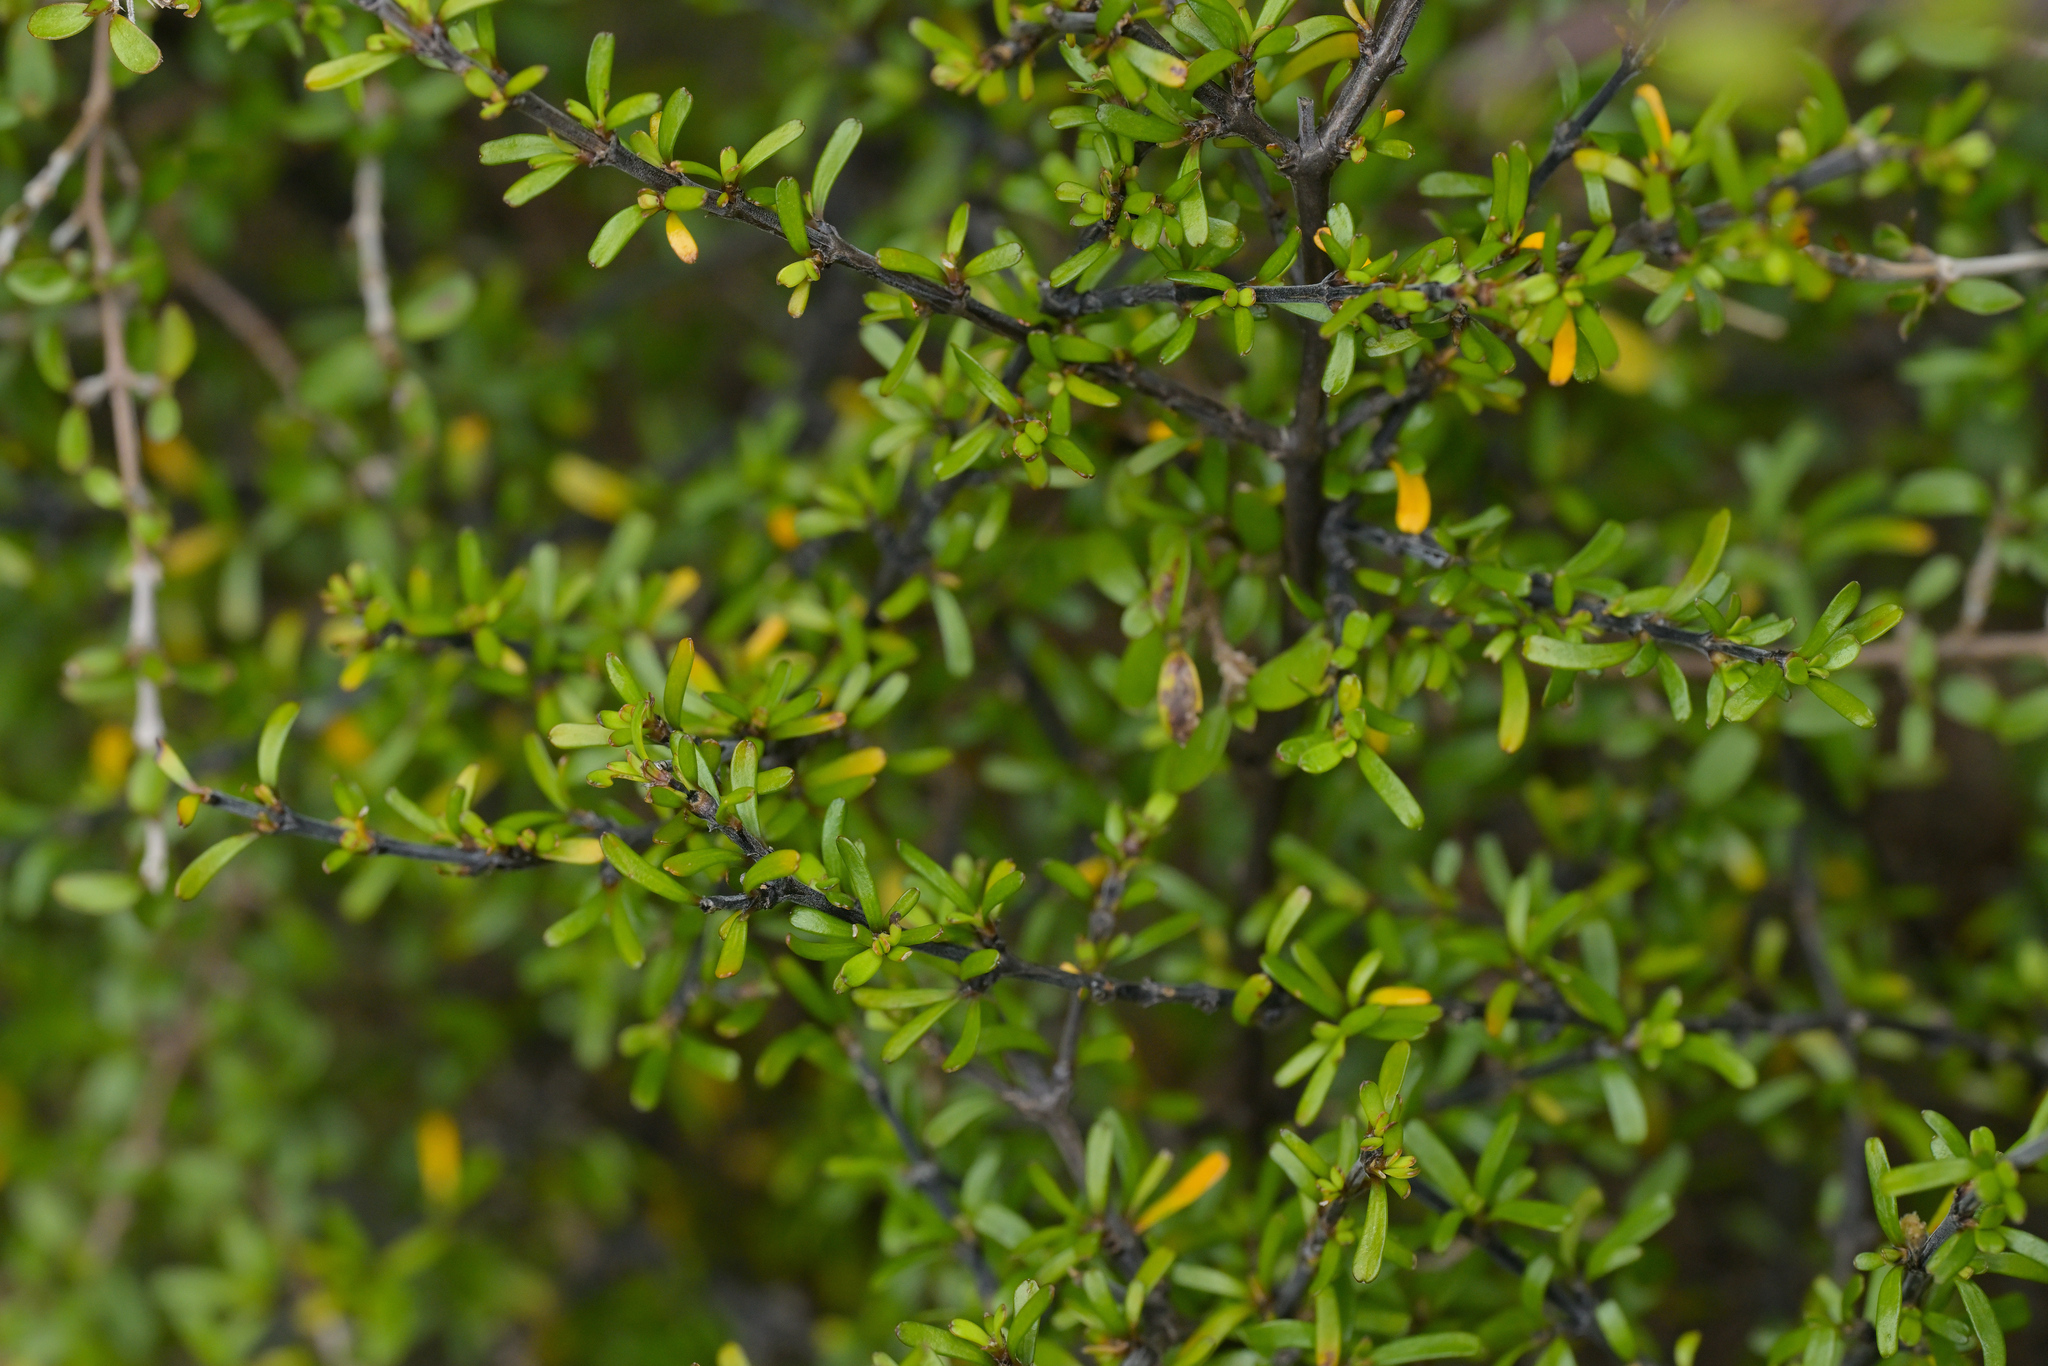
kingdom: Plantae
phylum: Tracheophyta
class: Magnoliopsida
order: Gentianales
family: Rubiaceae
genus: Coprosma
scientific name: Coprosma cuneata
